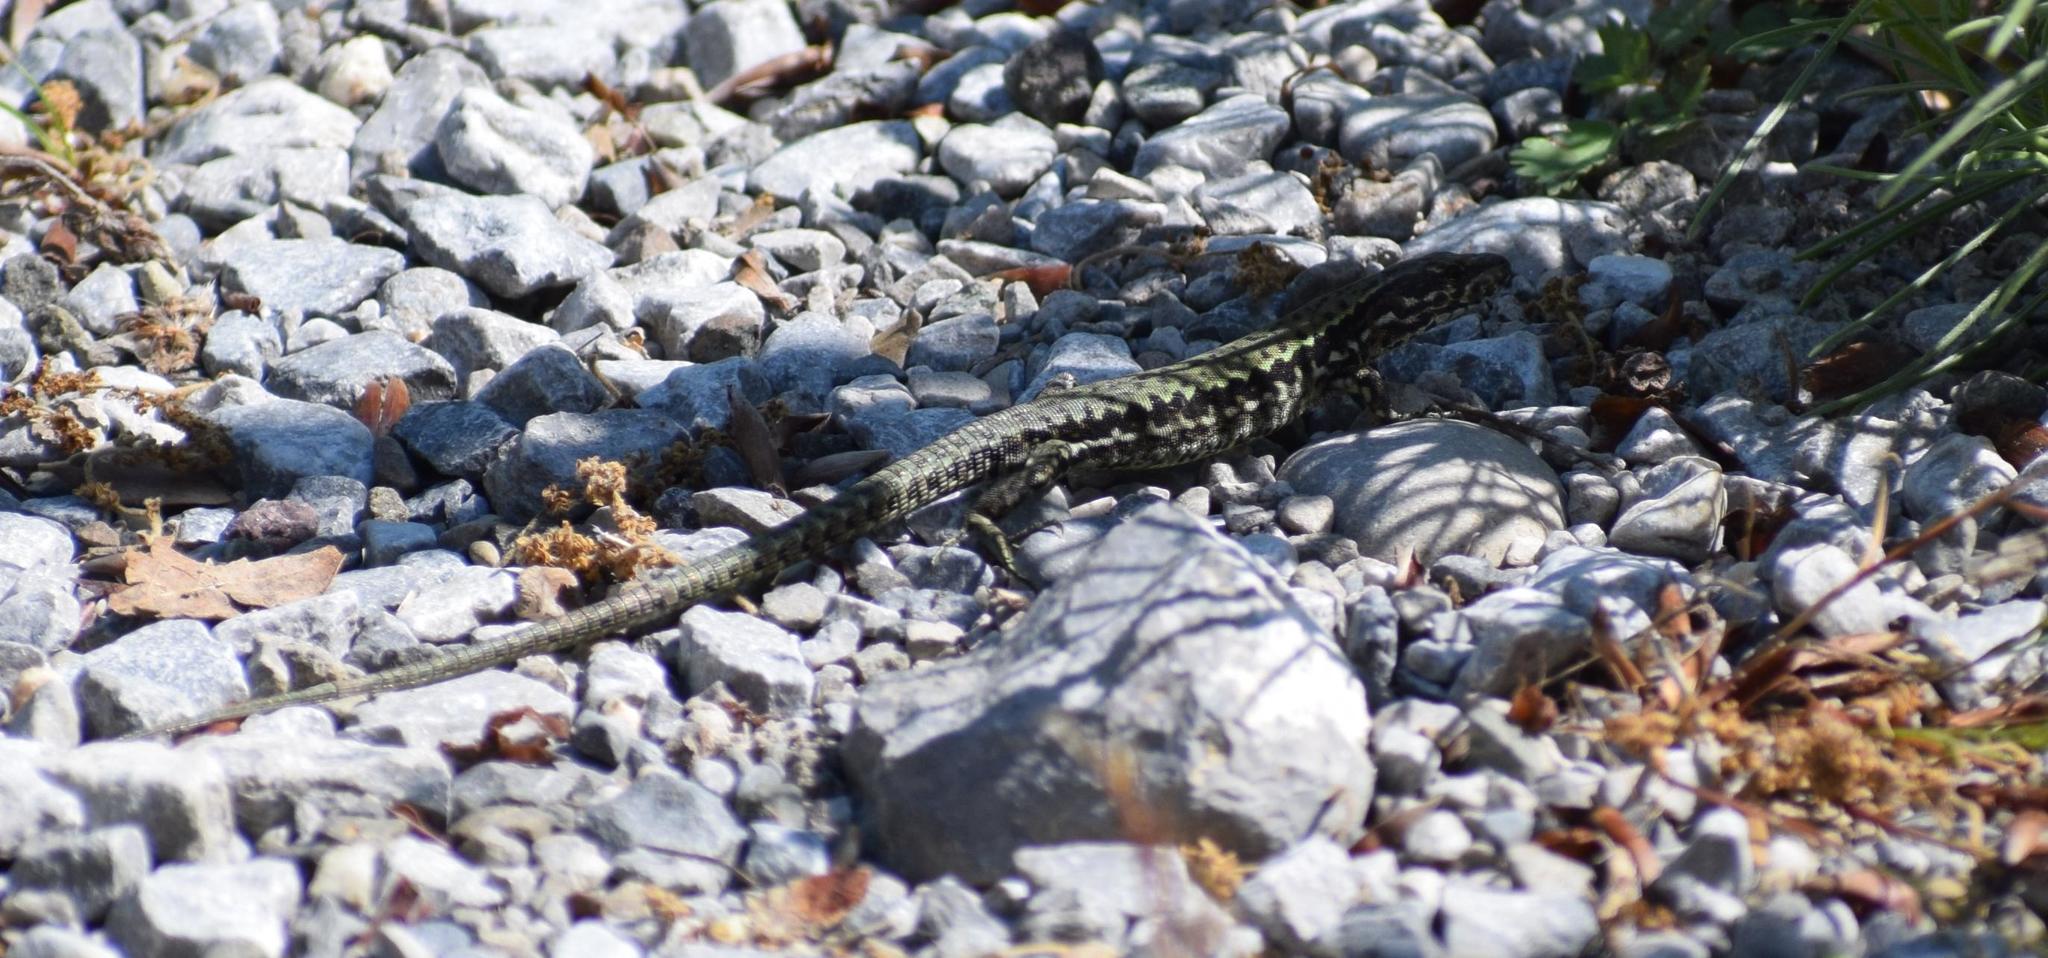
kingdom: Animalia
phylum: Chordata
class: Squamata
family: Lacertidae
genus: Podarcis
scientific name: Podarcis muralis
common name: Common wall lizard
